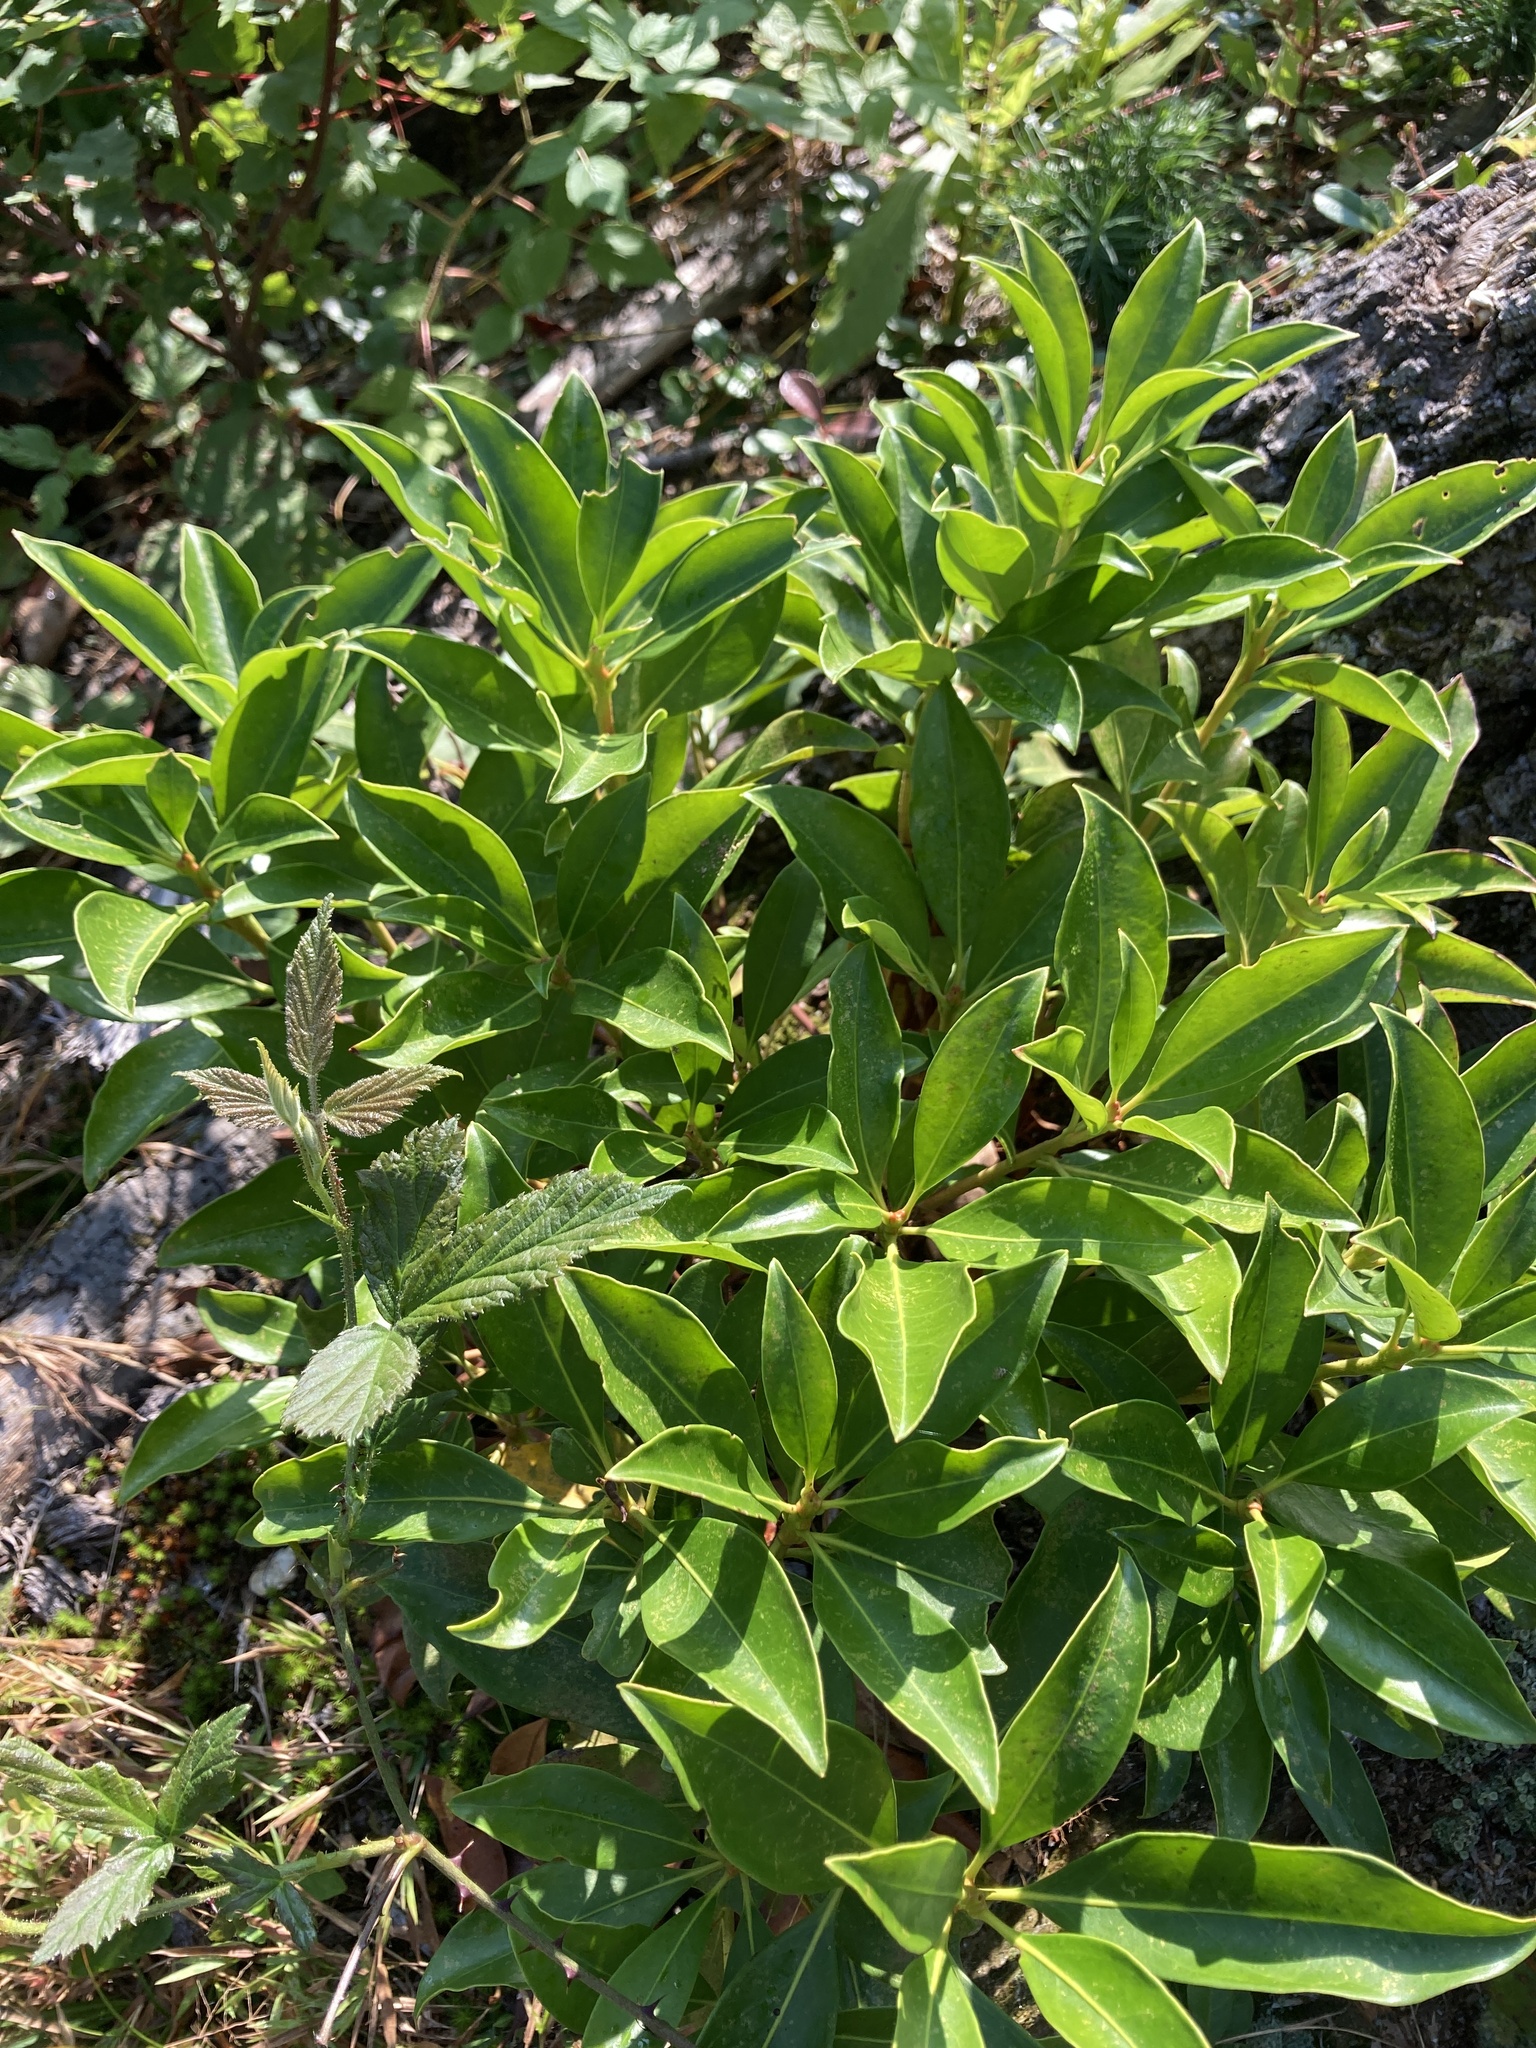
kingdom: Plantae
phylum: Tracheophyta
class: Magnoliopsida
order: Ericales
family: Ericaceae
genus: Kalmia
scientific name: Kalmia latifolia
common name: Mountain-laurel
